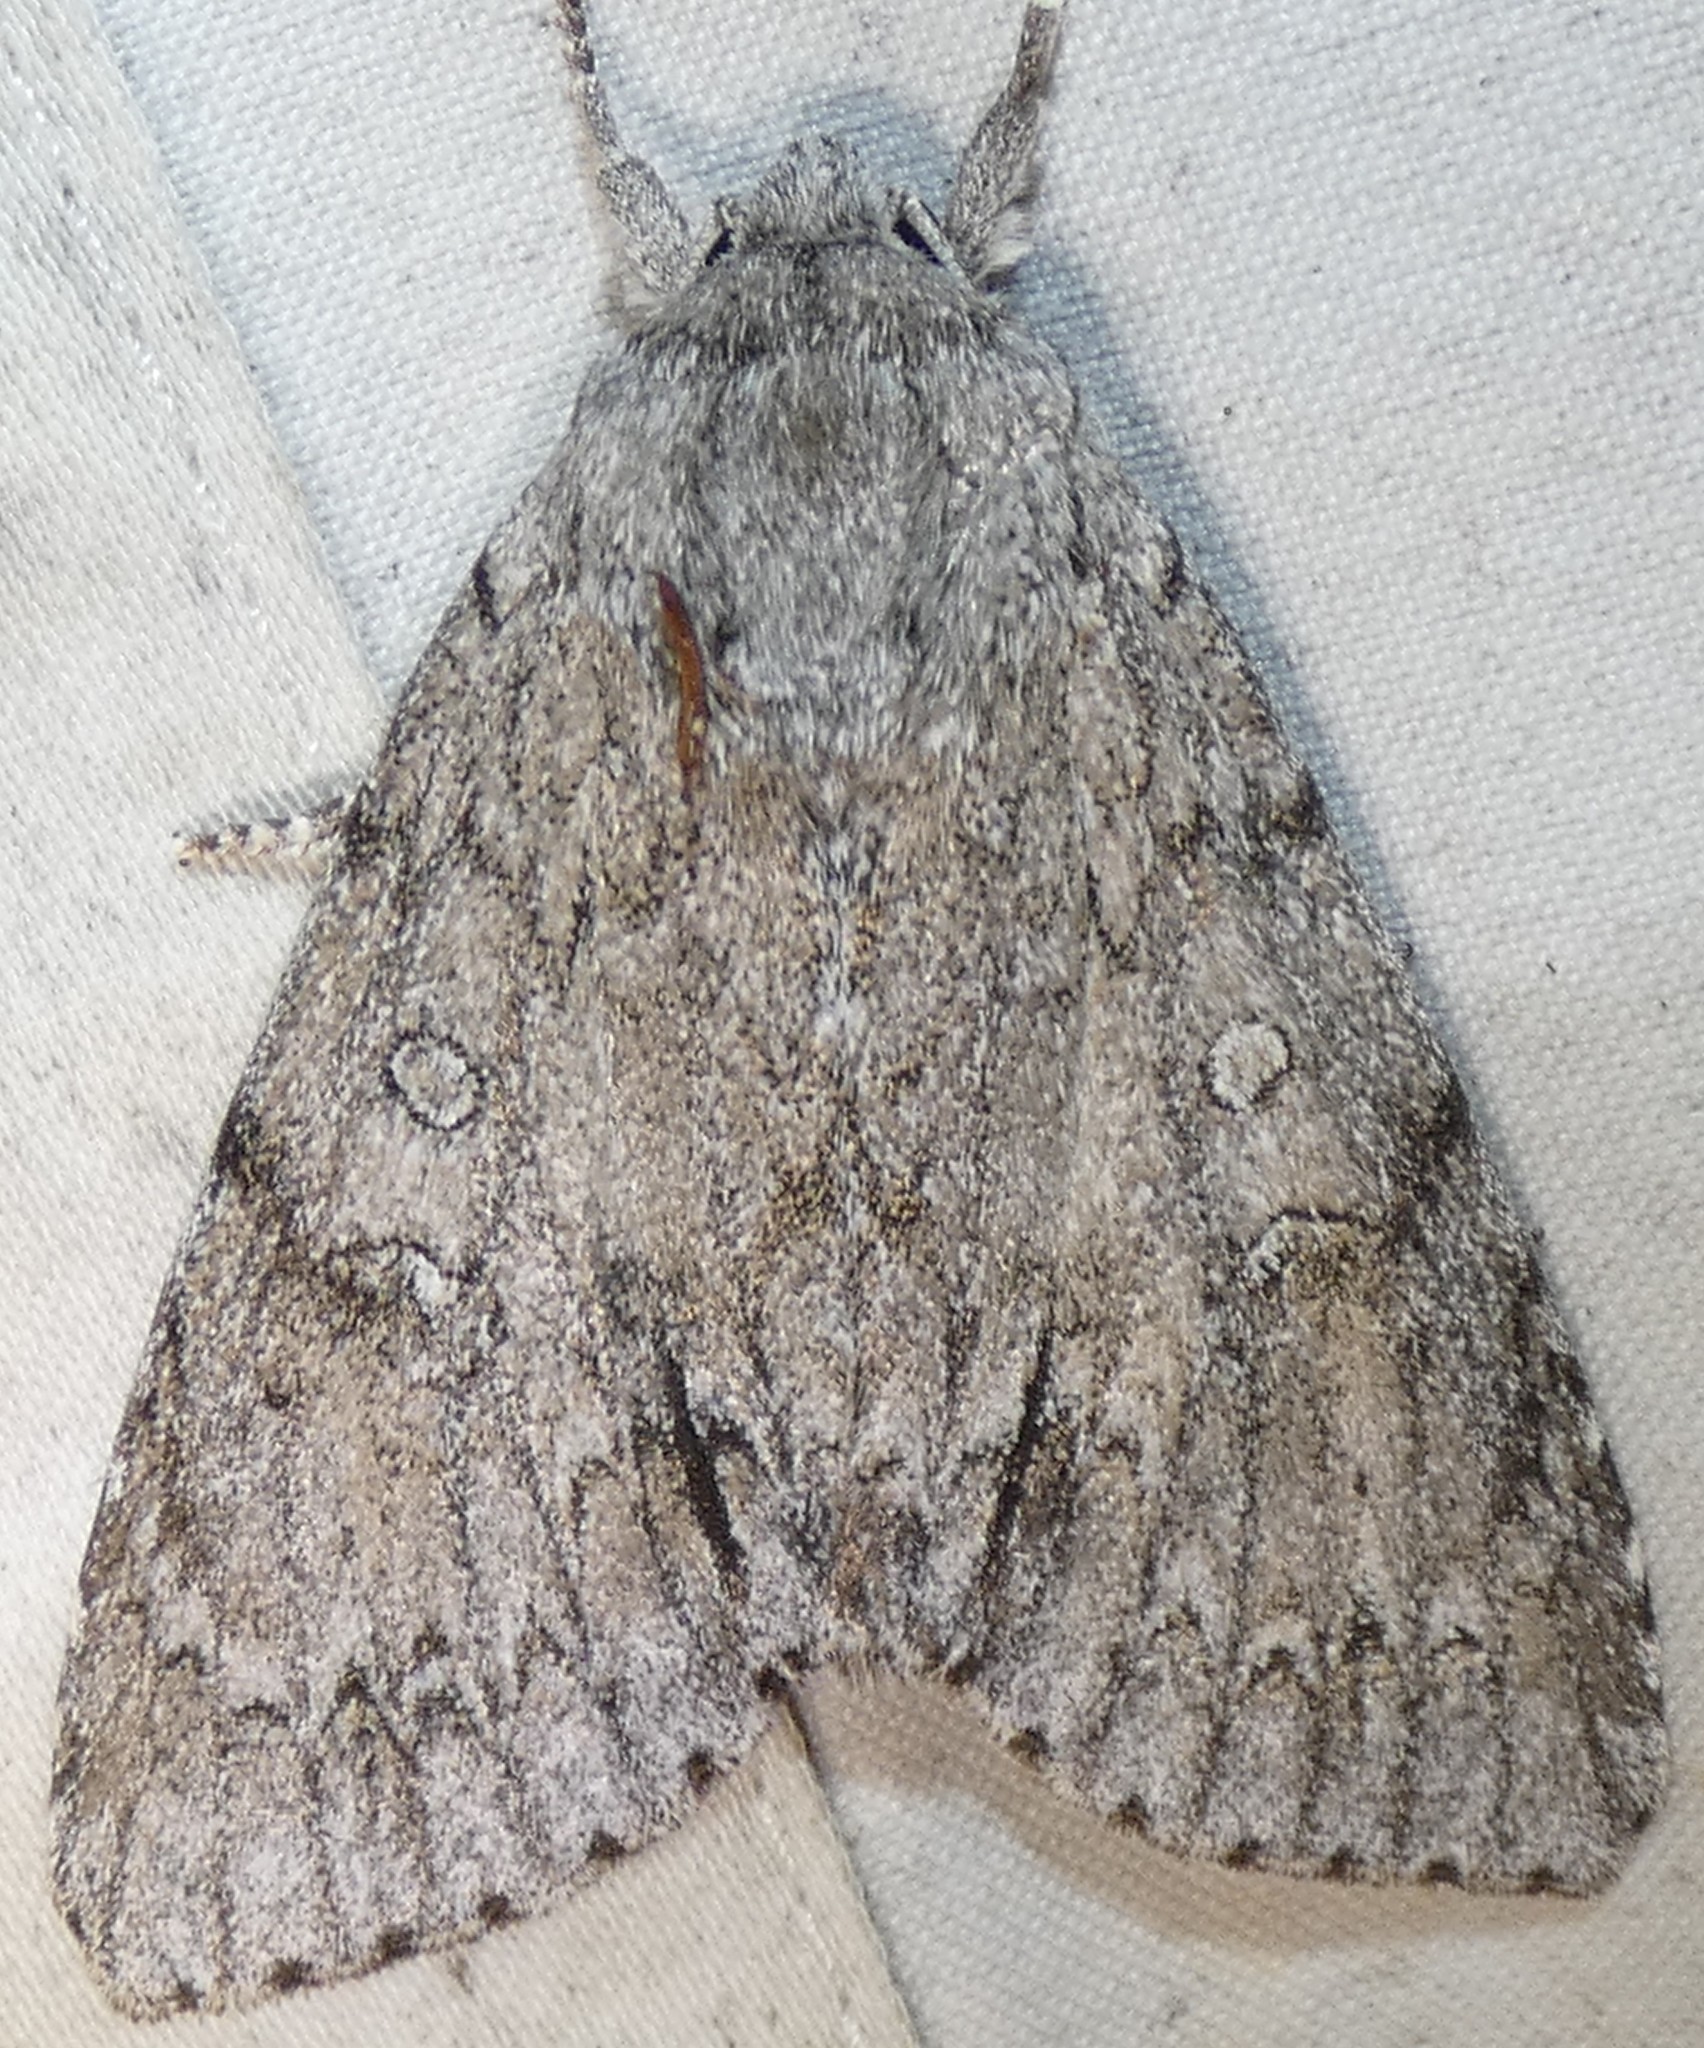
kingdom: Animalia
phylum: Arthropoda
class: Insecta
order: Lepidoptera
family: Noctuidae
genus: Acronicta
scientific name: Acronicta americana
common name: American dagger
